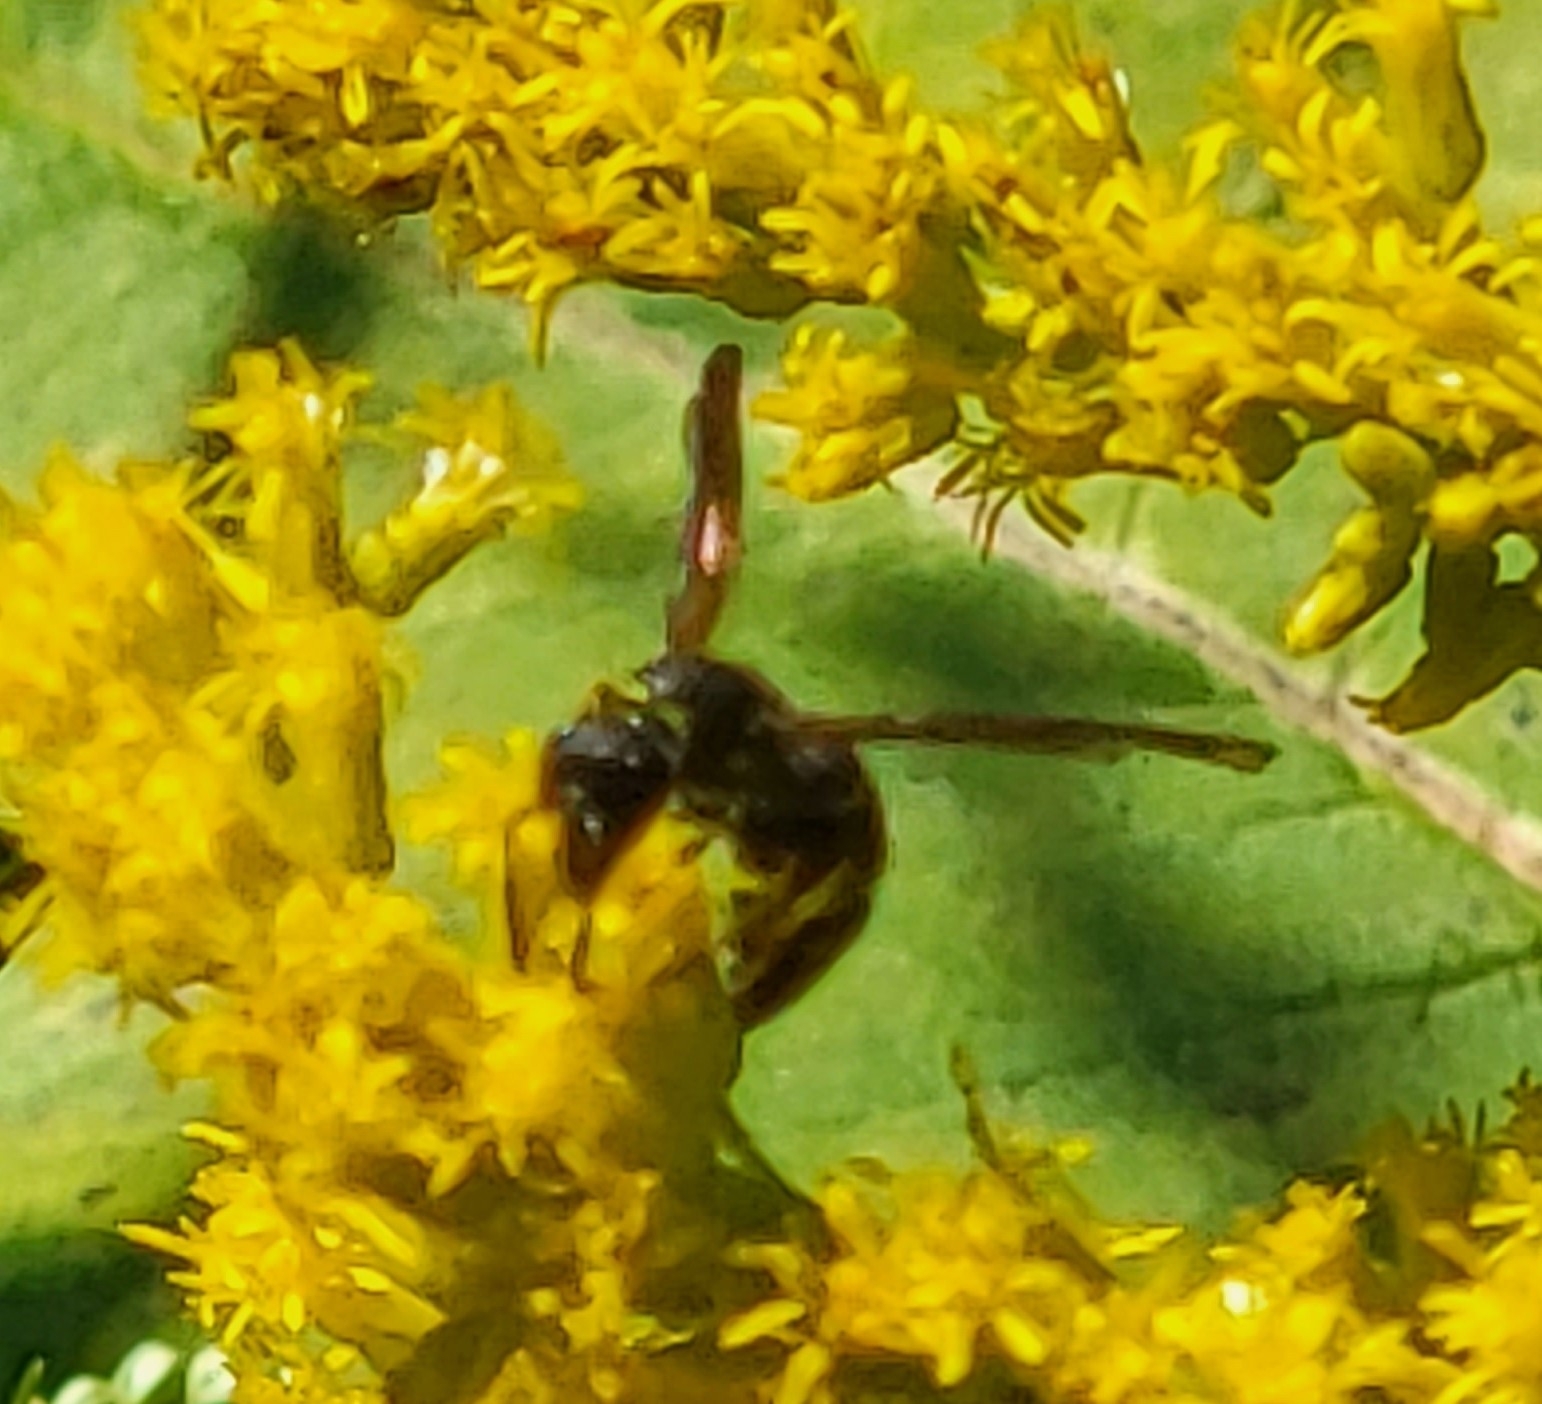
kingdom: Animalia
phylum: Arthropoda
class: Insecta
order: Hymenoptera
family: Vespidae
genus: Ancistrocerus
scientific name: Ancistrocerus adiabatus
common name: Bramble mason wasp
